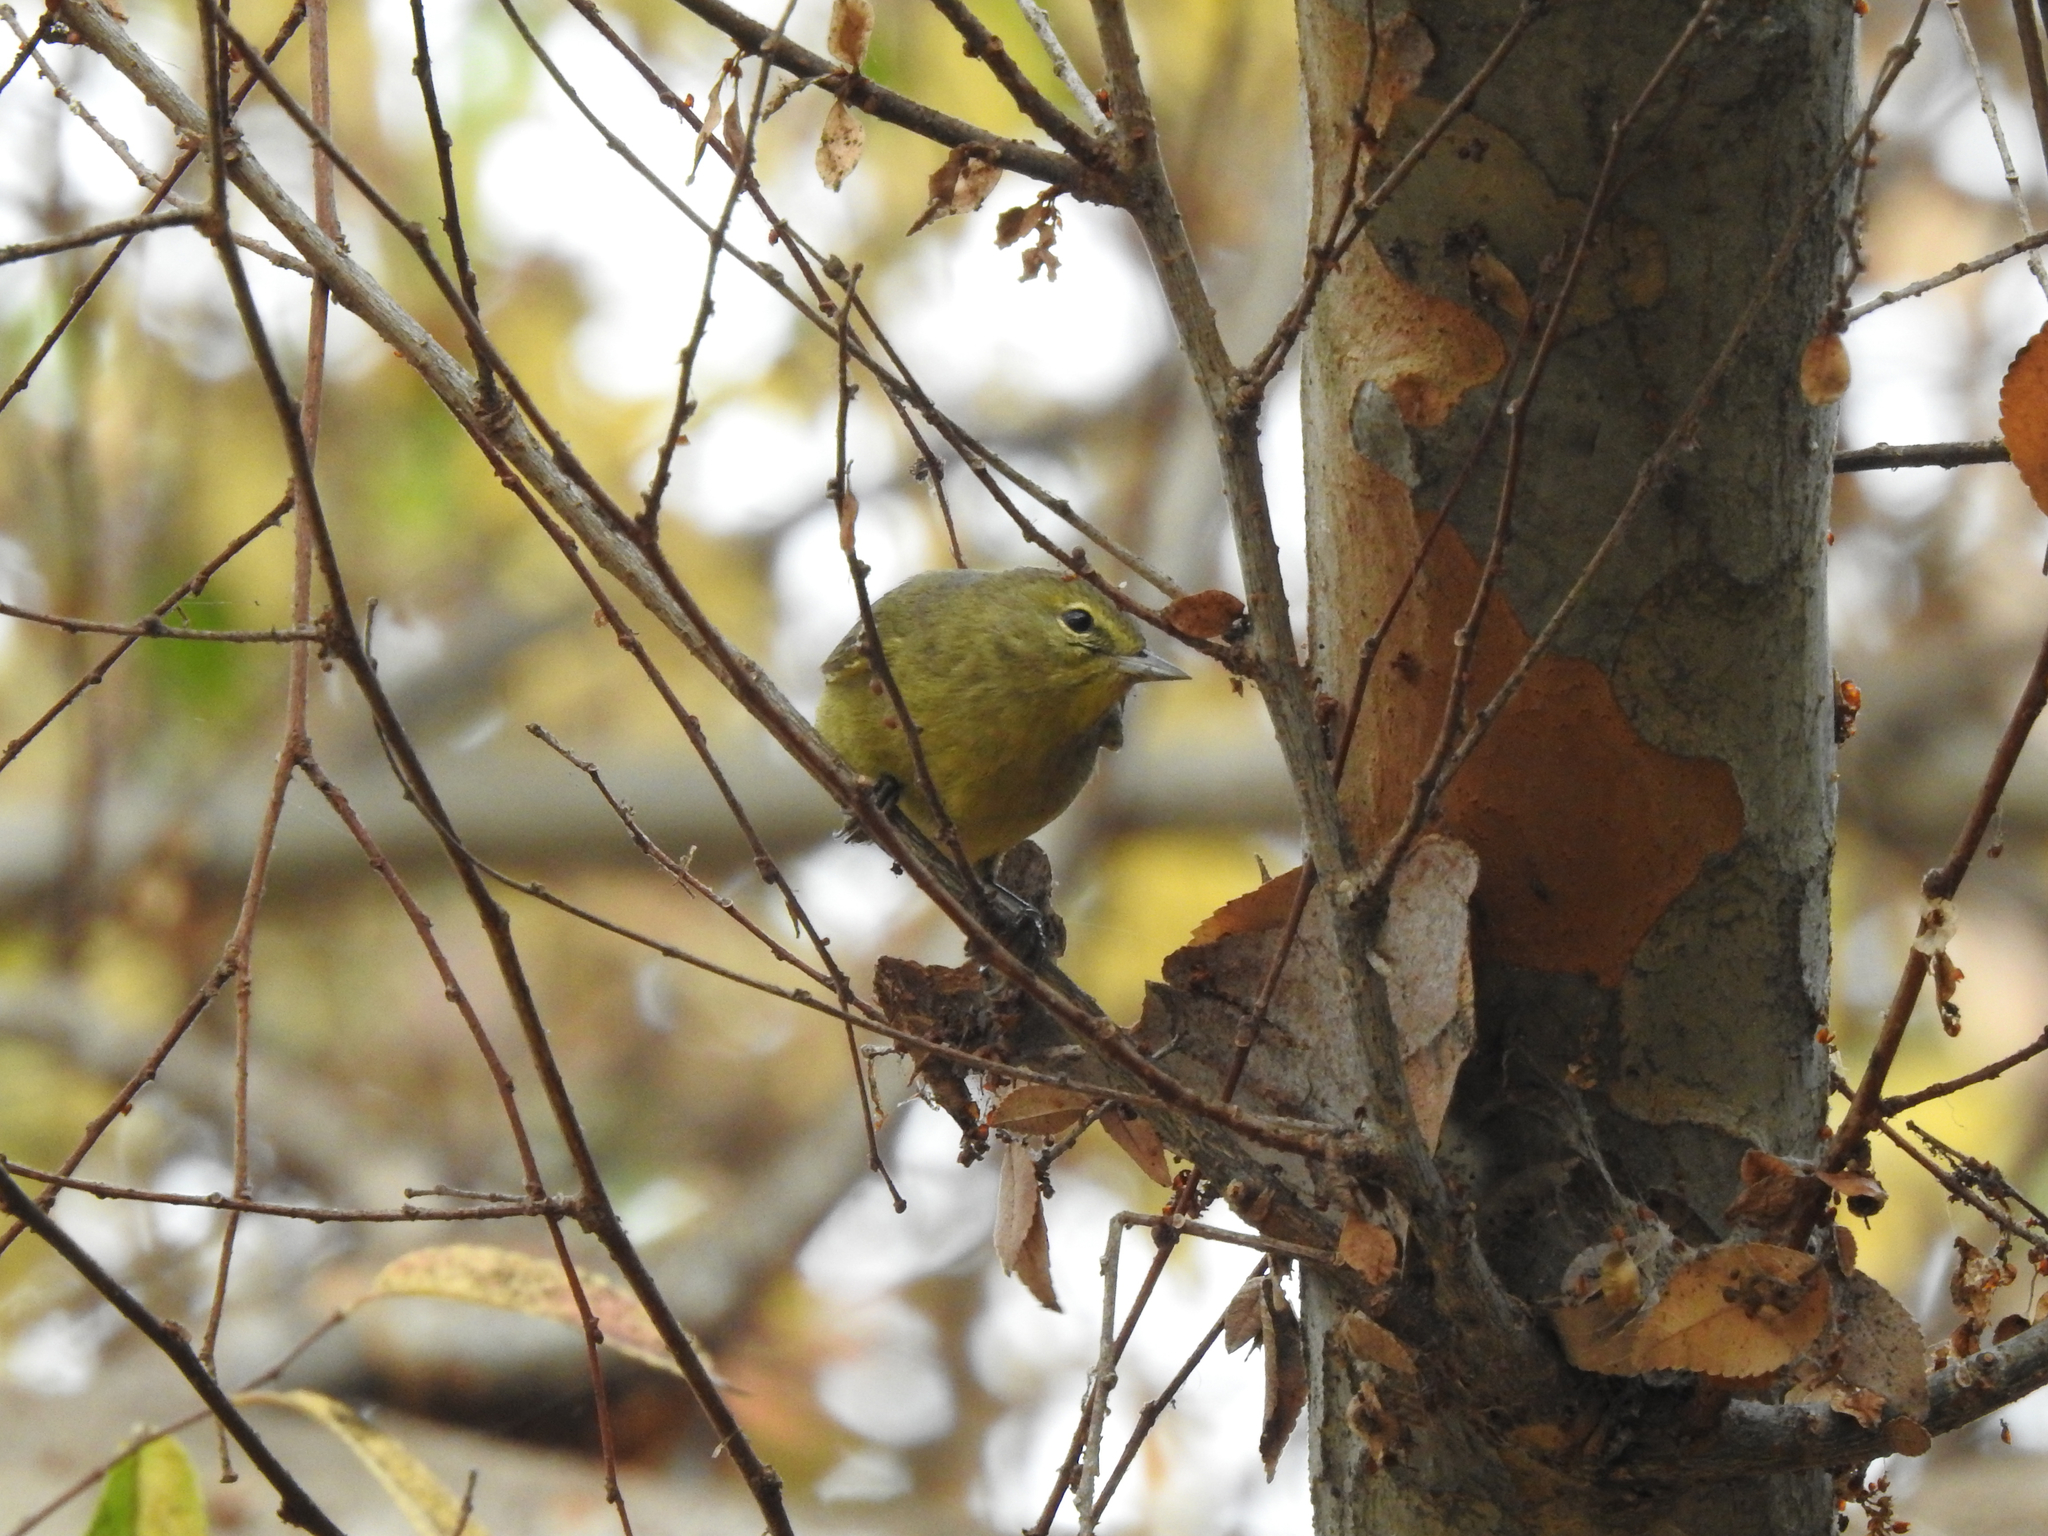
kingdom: Animalia
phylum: Chordata
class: Aves
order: Passeriformes
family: Parulidae
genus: Leiothlypis
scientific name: Leiothlypis celata
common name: Orange-crowned warbler
